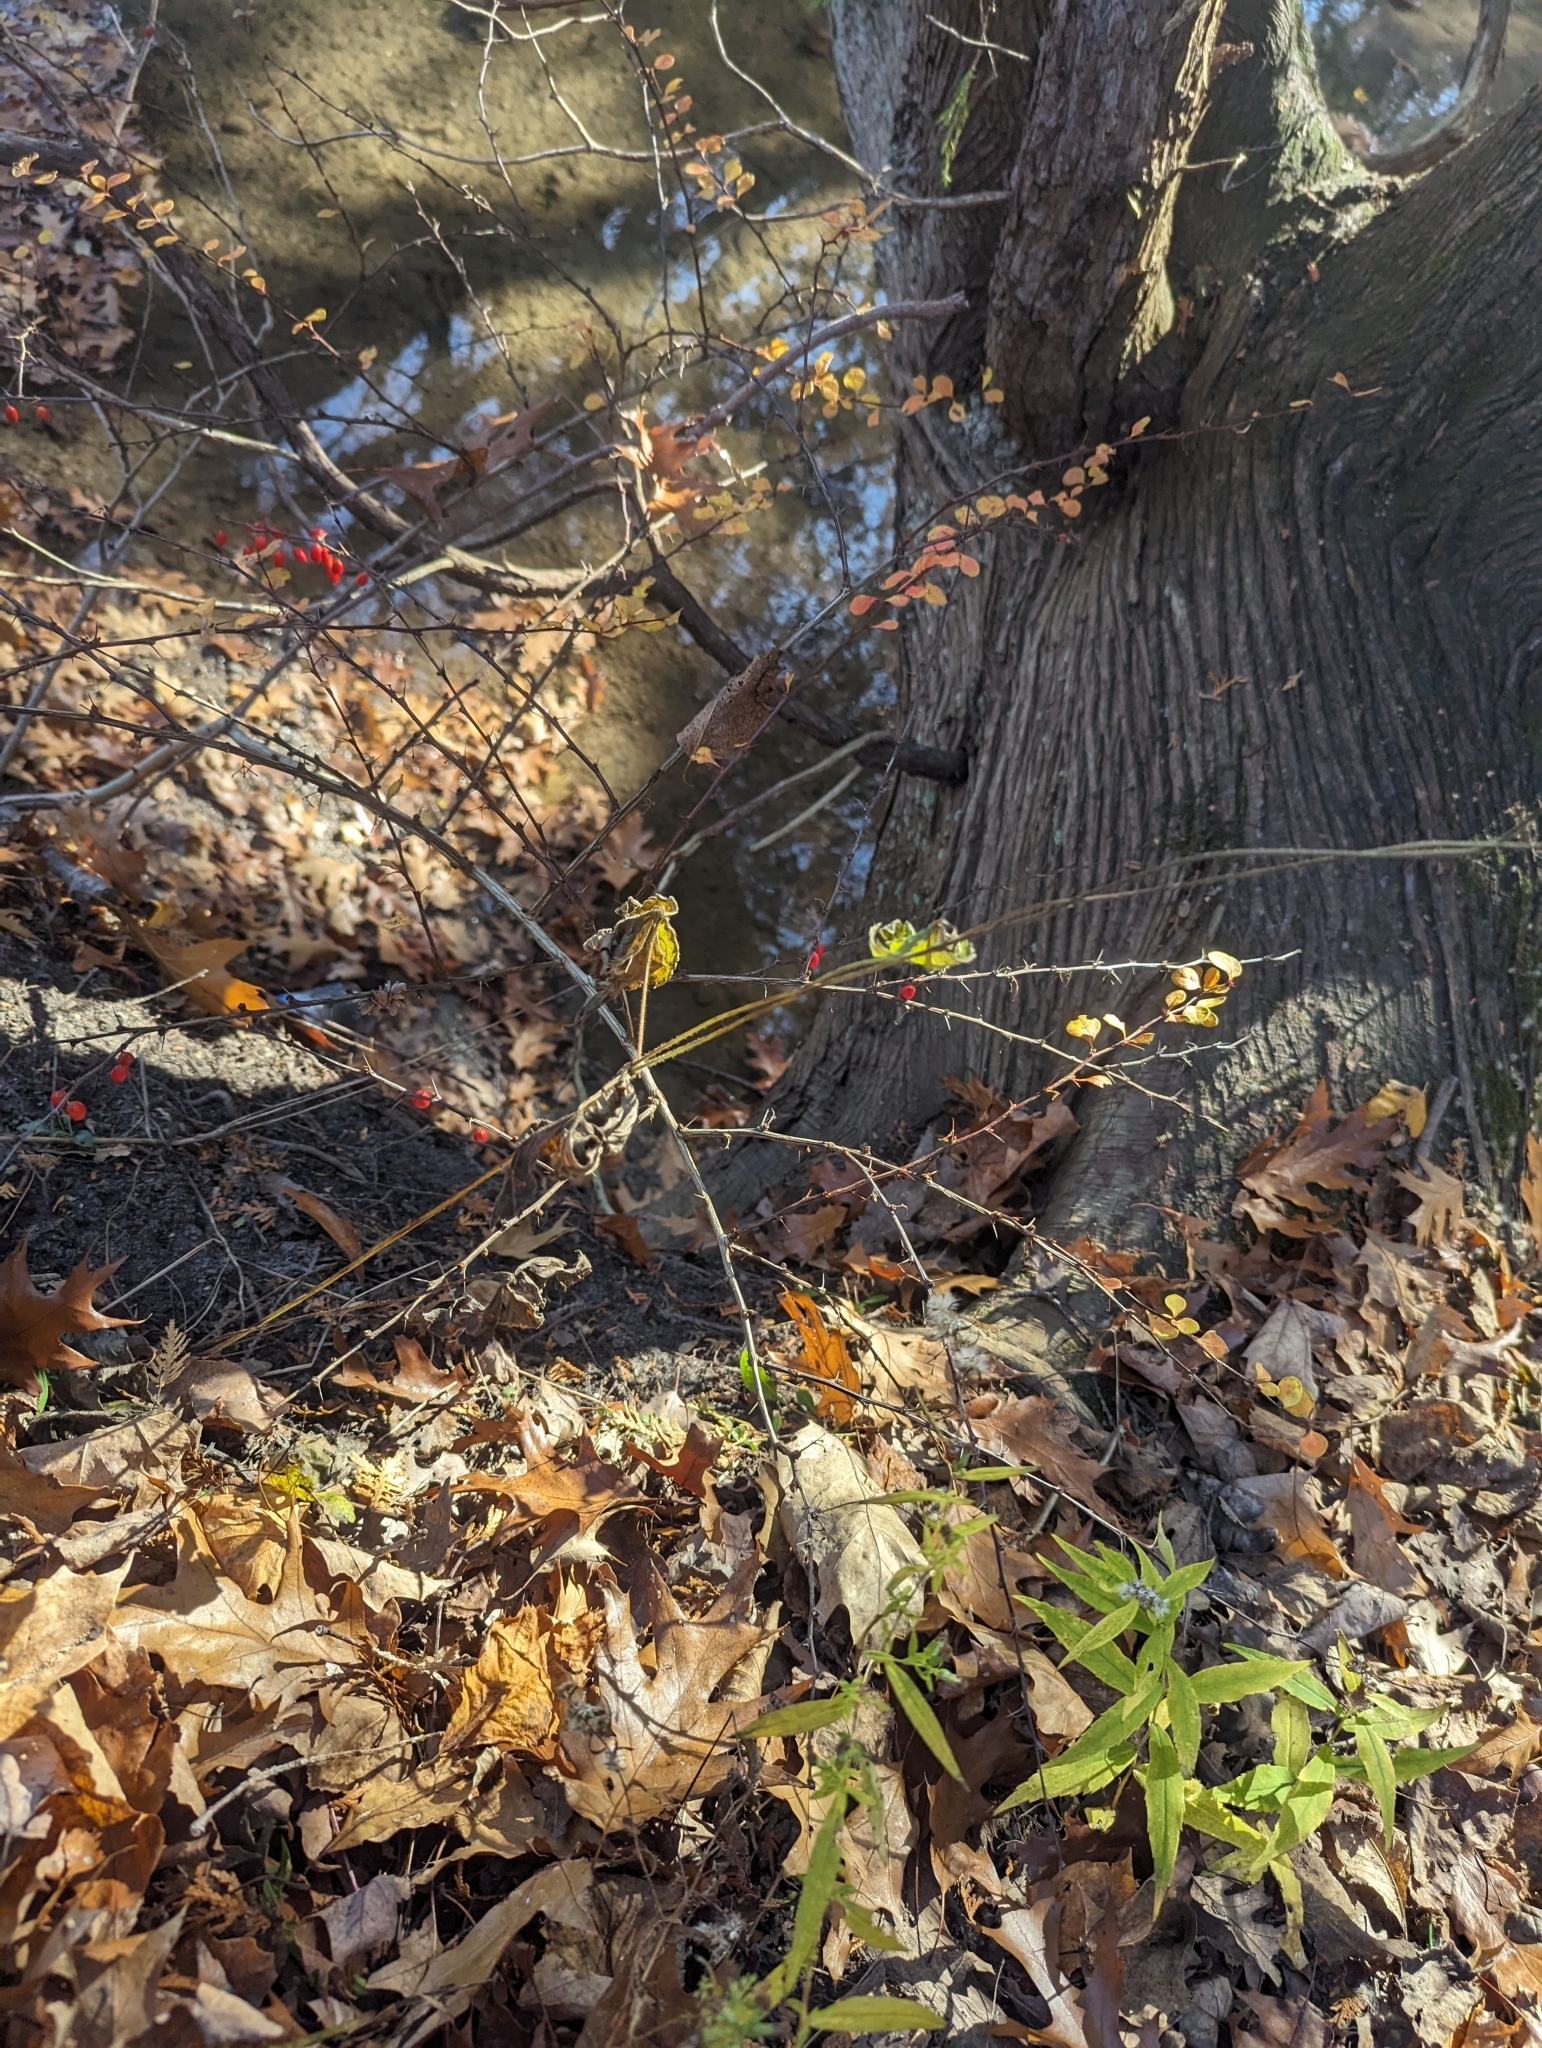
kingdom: Plantae
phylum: Tracheophyta
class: Magnoliopsida
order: Ranunculales
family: Ranunculaceae
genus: Anemone
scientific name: Anemone virginiana
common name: Tall anemone
